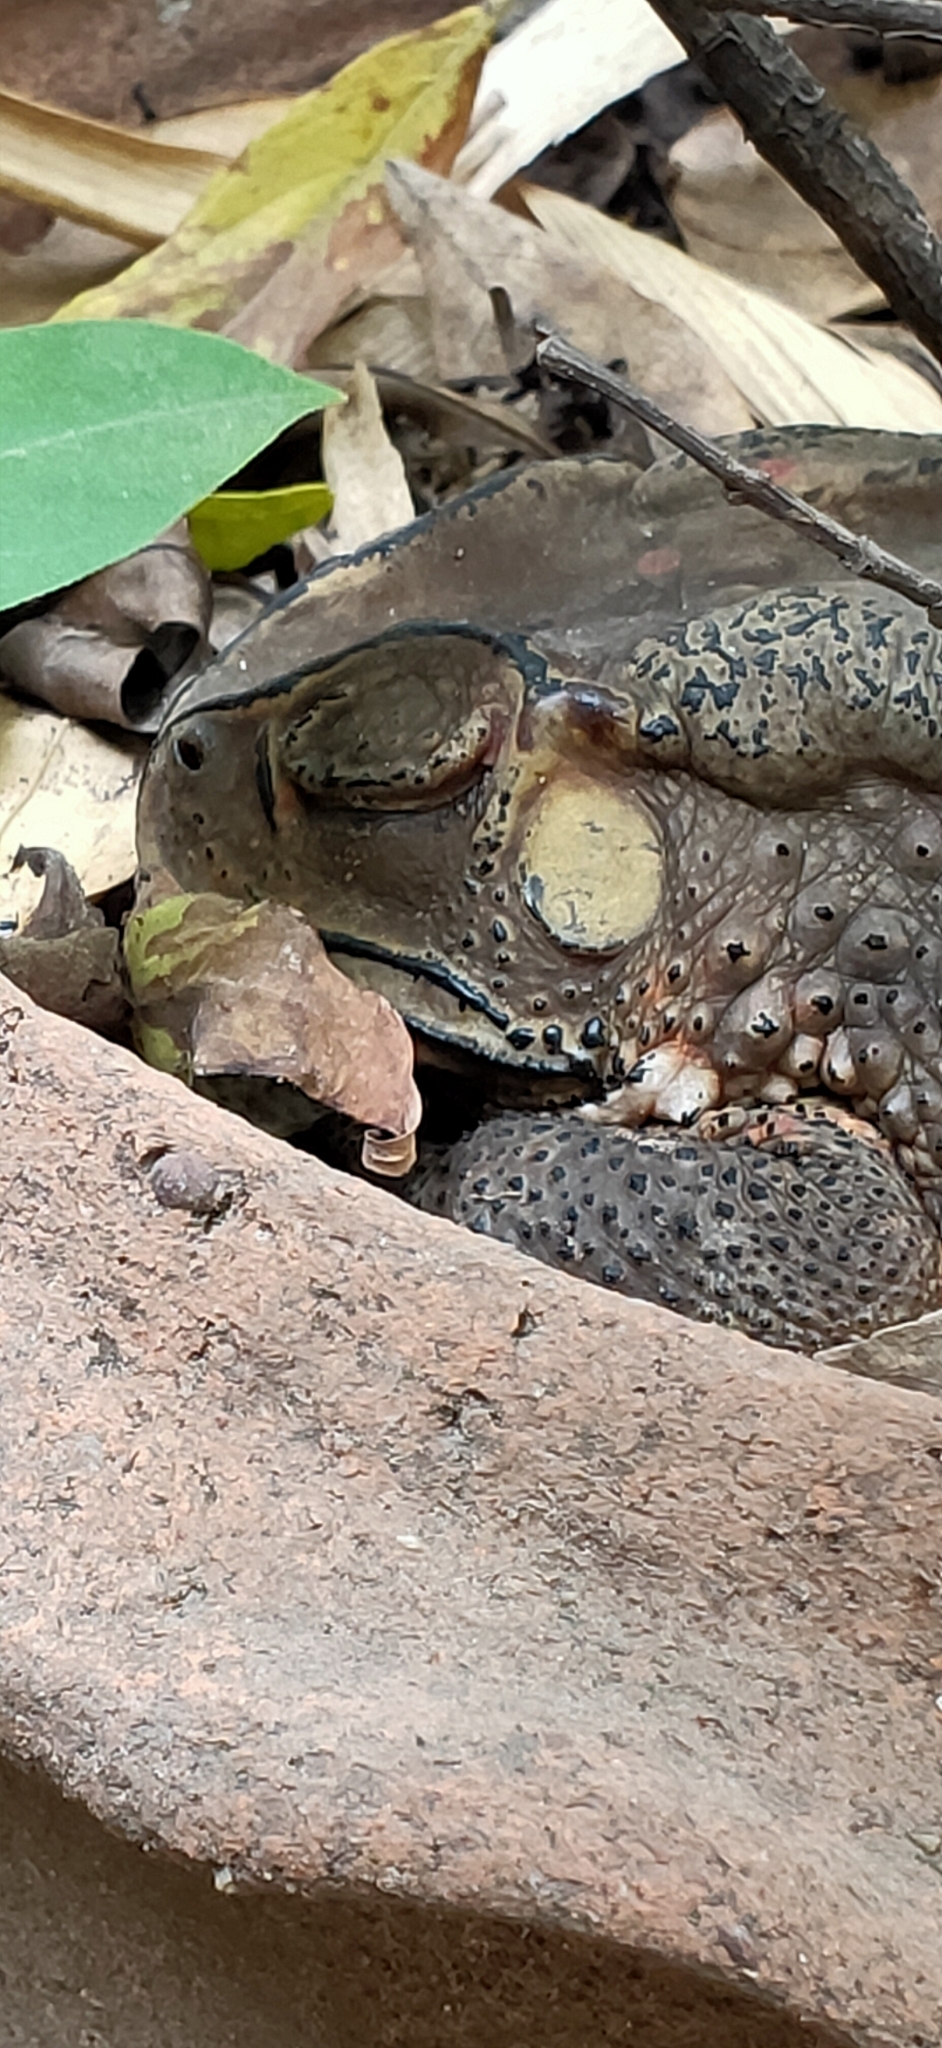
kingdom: Animalia
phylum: Chordata
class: Amphibia
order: Anura
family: Bufonidae
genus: Duttaphrynus
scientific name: Duttaphrynus melanostictus
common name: Common sunda toad
